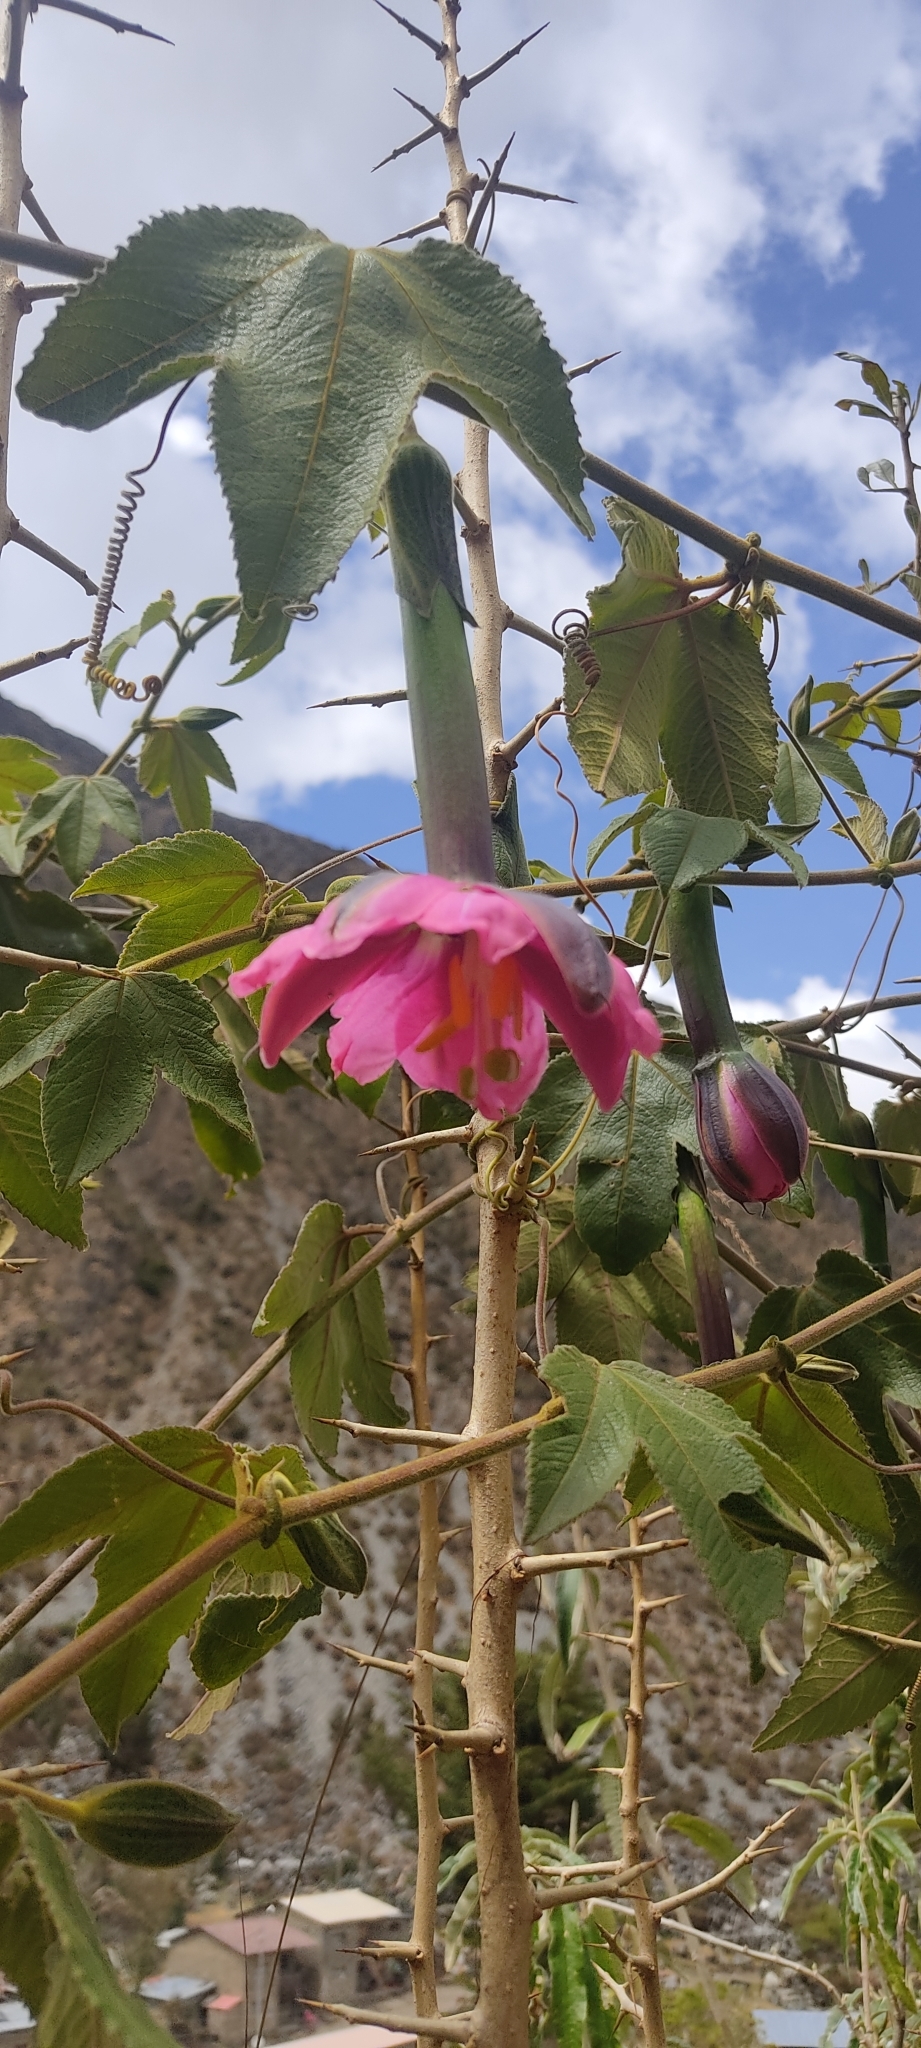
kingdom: Plantae
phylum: Tracheophyta
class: Magnoliopsida
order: Malpighiales
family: Passifloraceae
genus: Passiflora
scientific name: Passiflora tripartita
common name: Banana poka
